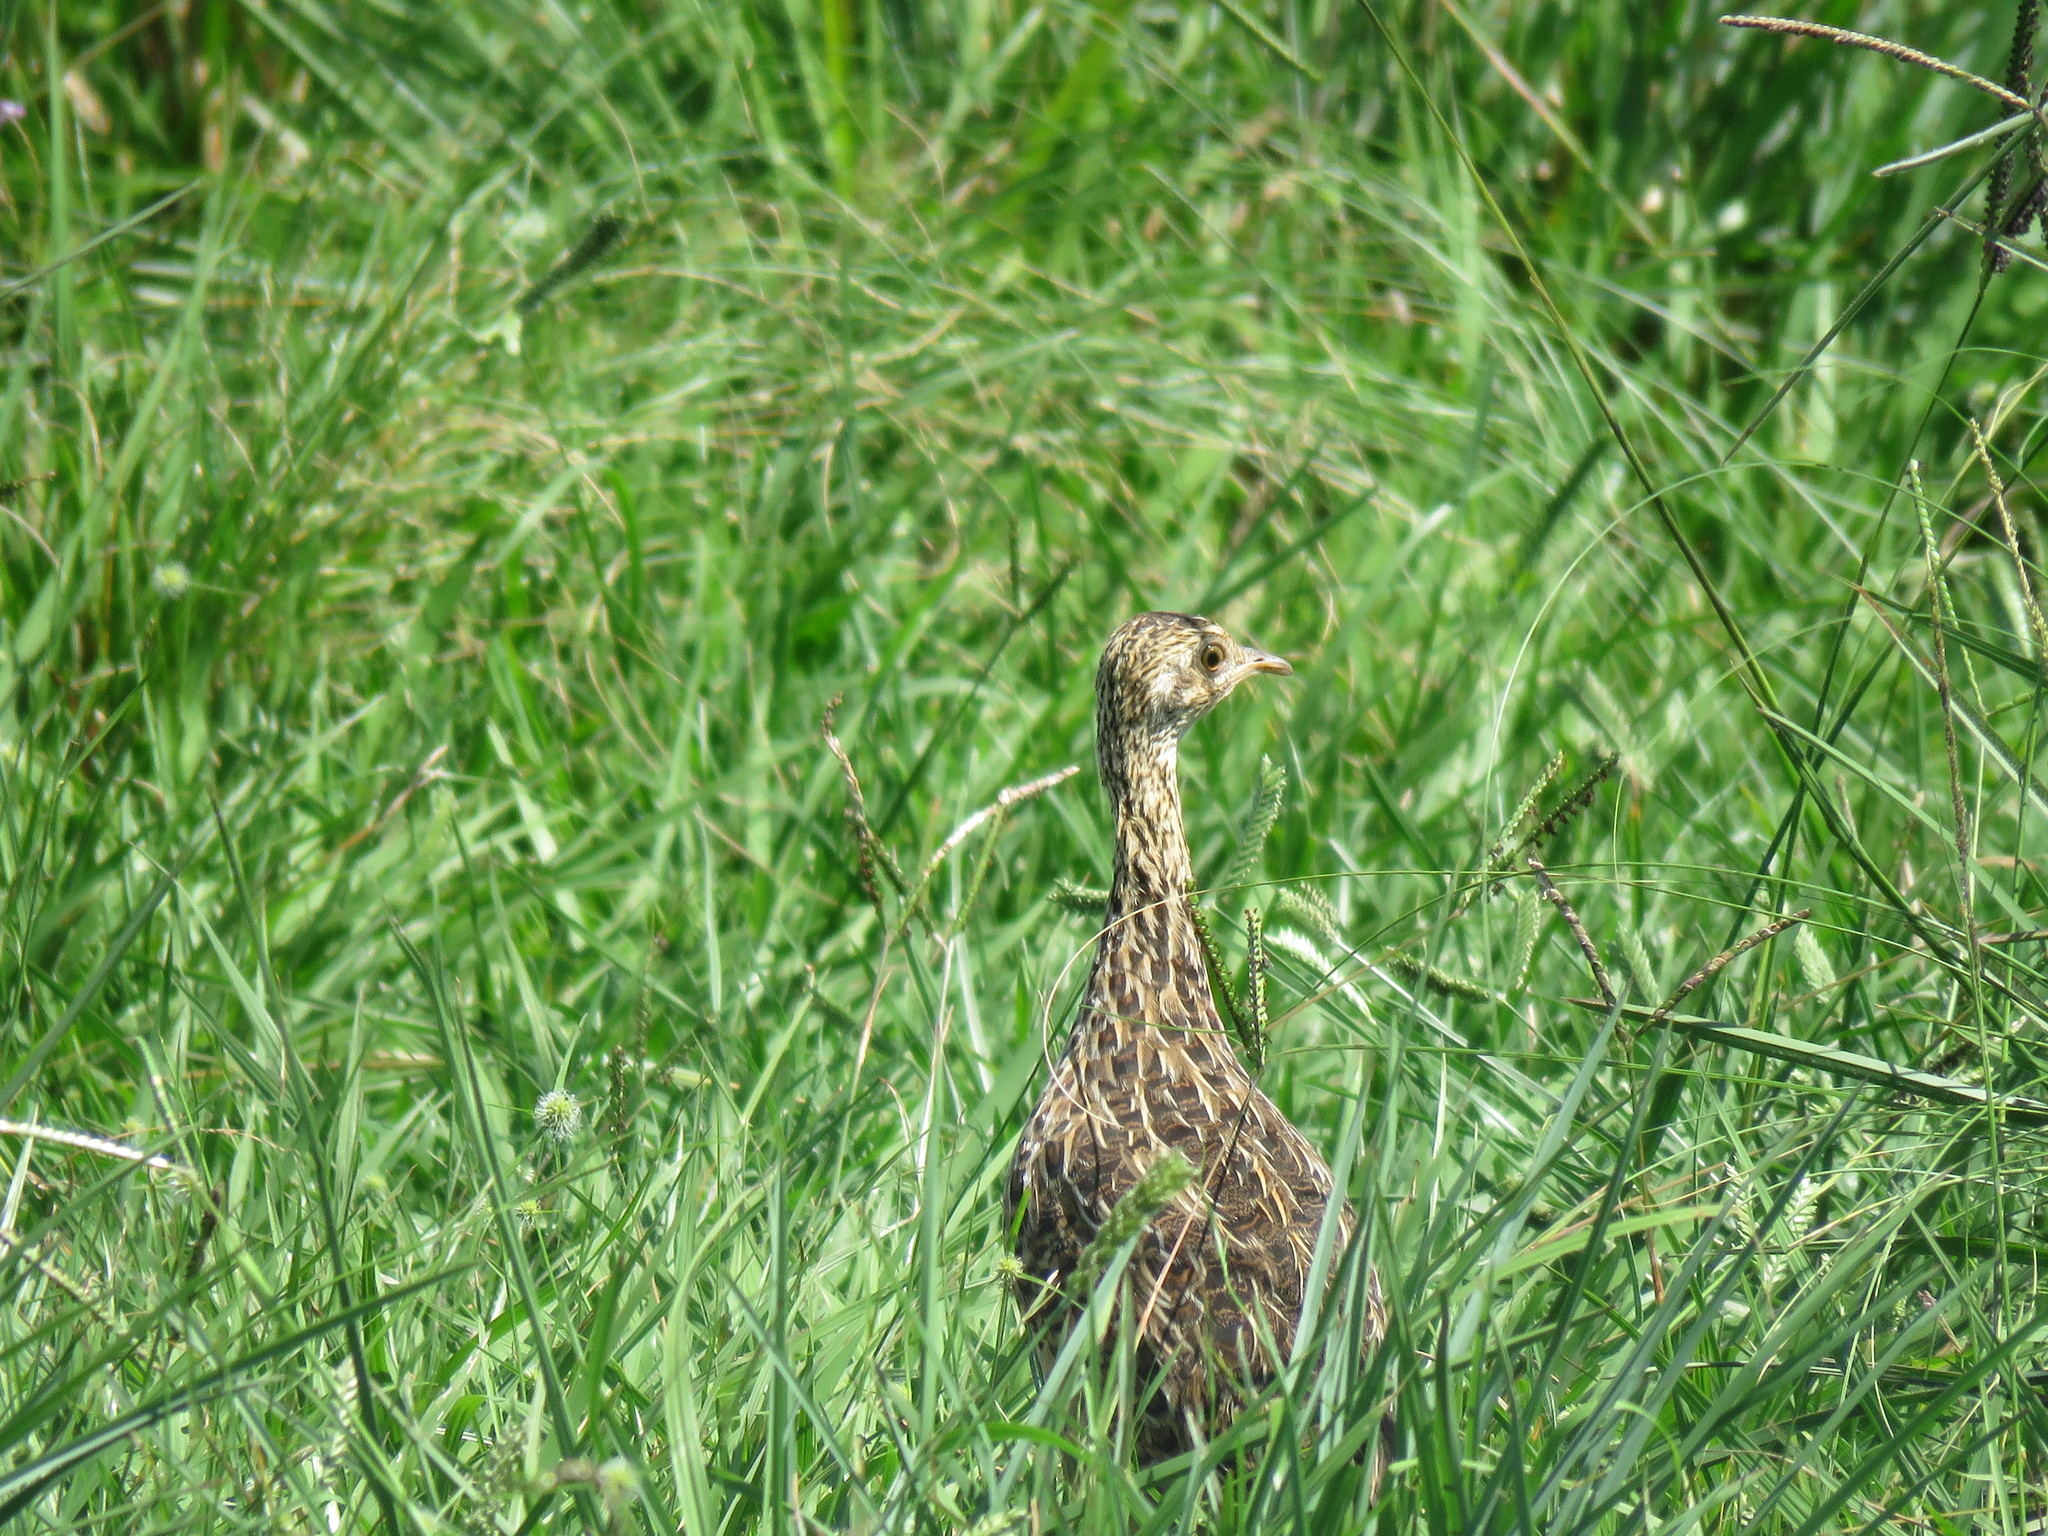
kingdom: Animalia
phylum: Chordata
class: Aves
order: Tinamiformes
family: Tinamidae
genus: Nothura
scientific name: Nothura maculosa
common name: Spotted nothura
